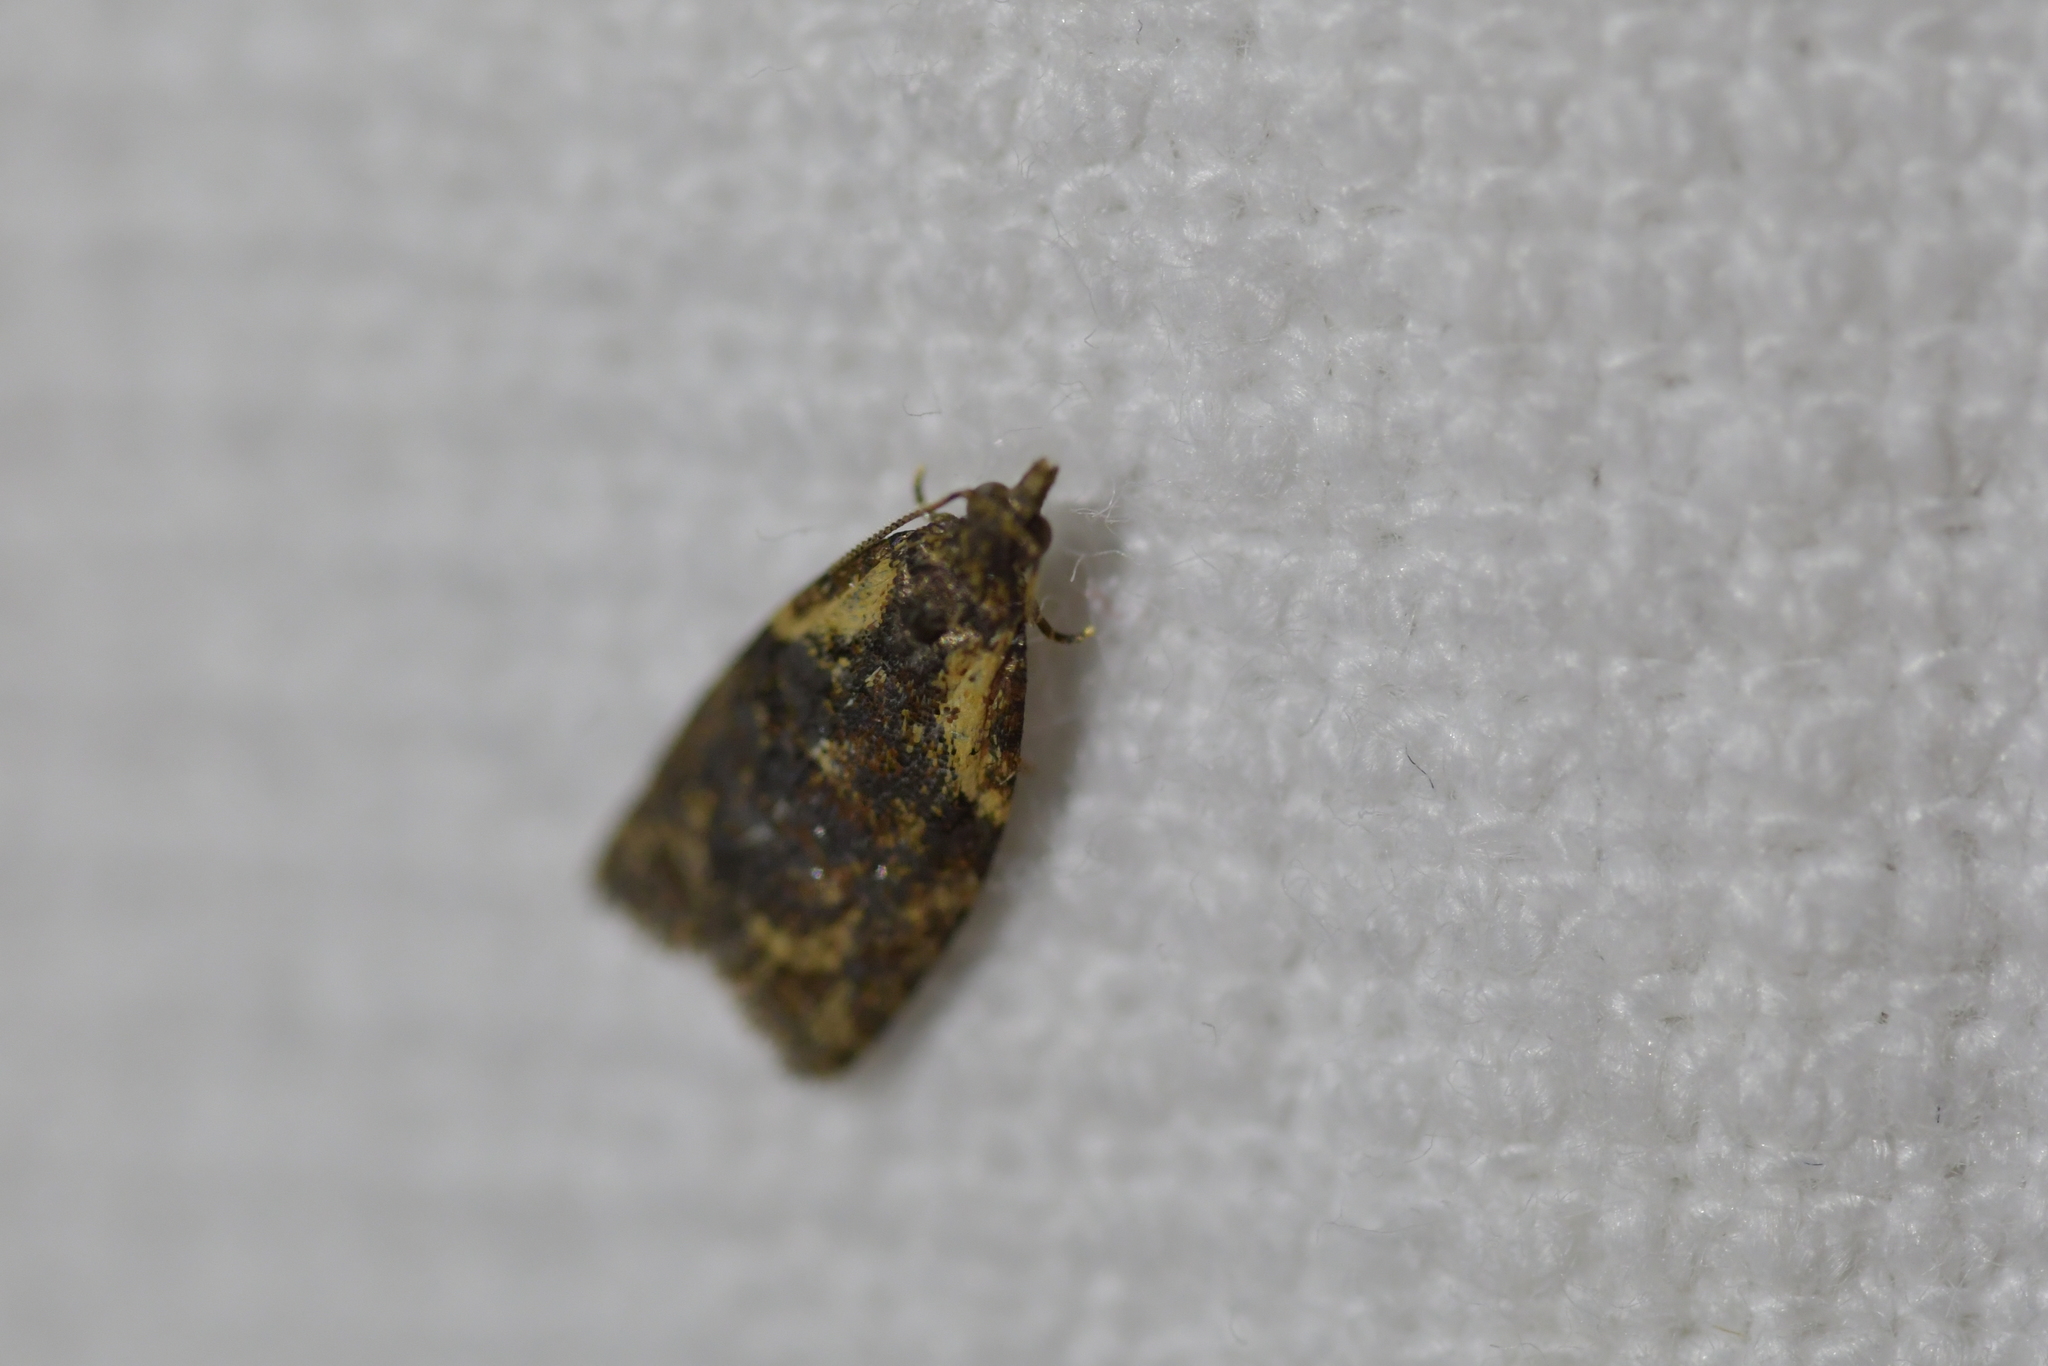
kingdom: Animalia
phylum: Arthropoda
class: Insecta
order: Lepidoptera
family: Tortricidae
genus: Capua
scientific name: Capua intractana
